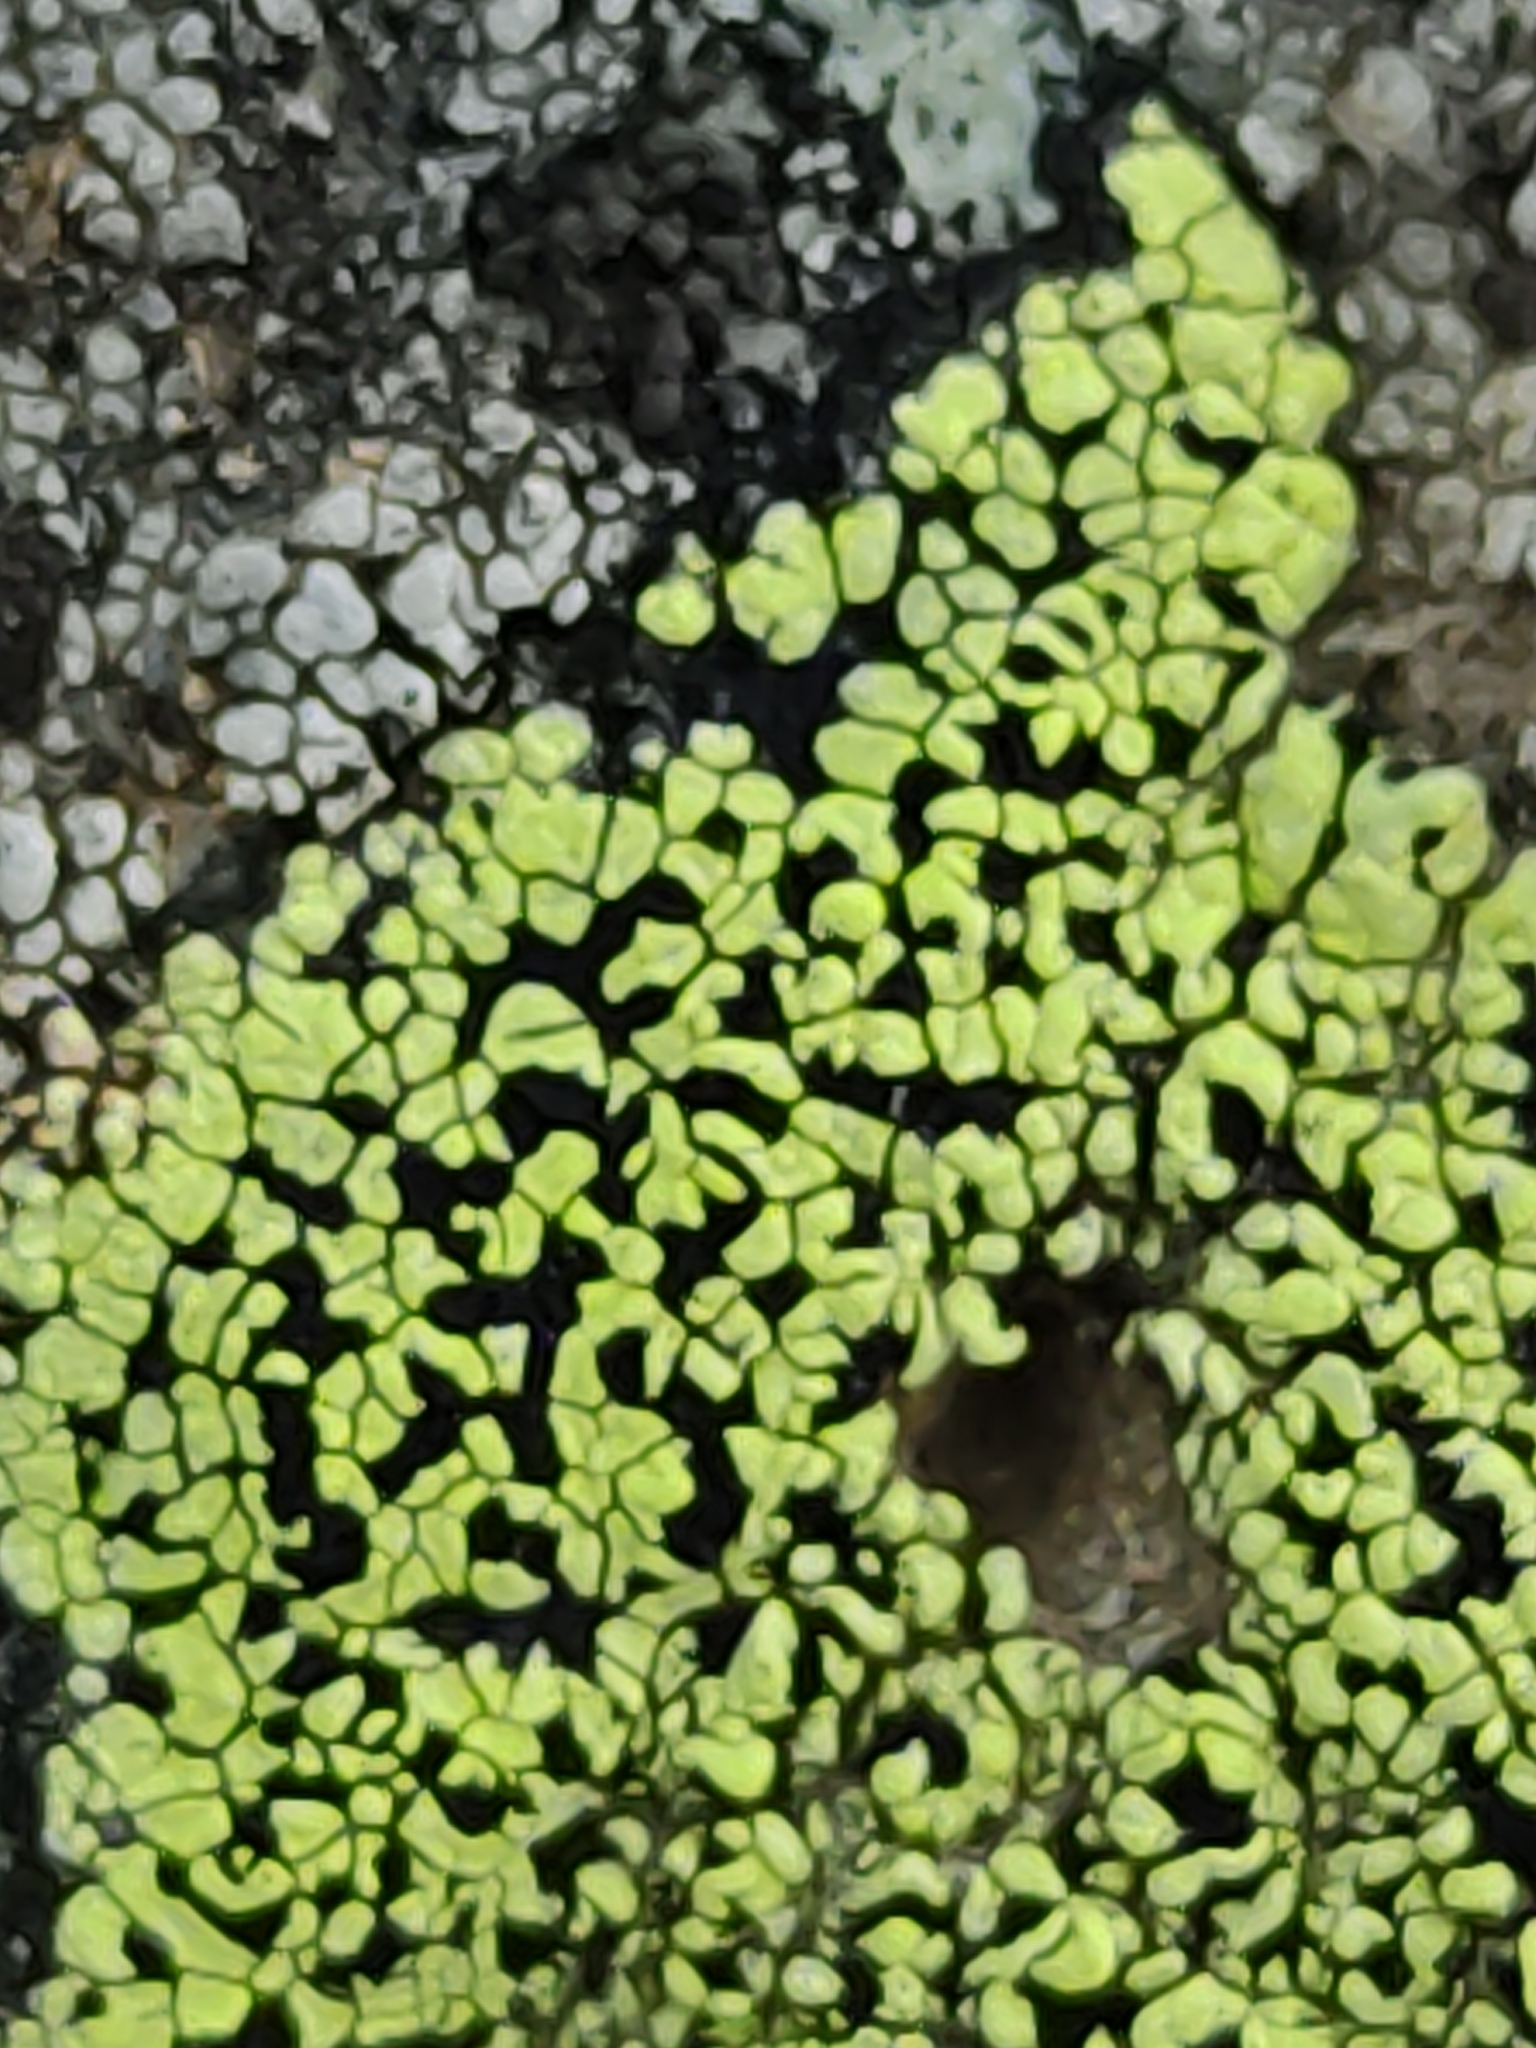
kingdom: Fungi
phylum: Ascomycota
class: Lecanoromycetes
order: Rhizocarpales
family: Rhizocarpaceae
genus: Rhizocarpon
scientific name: Rhizocarpon geographicum
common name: Yellow map lichen
